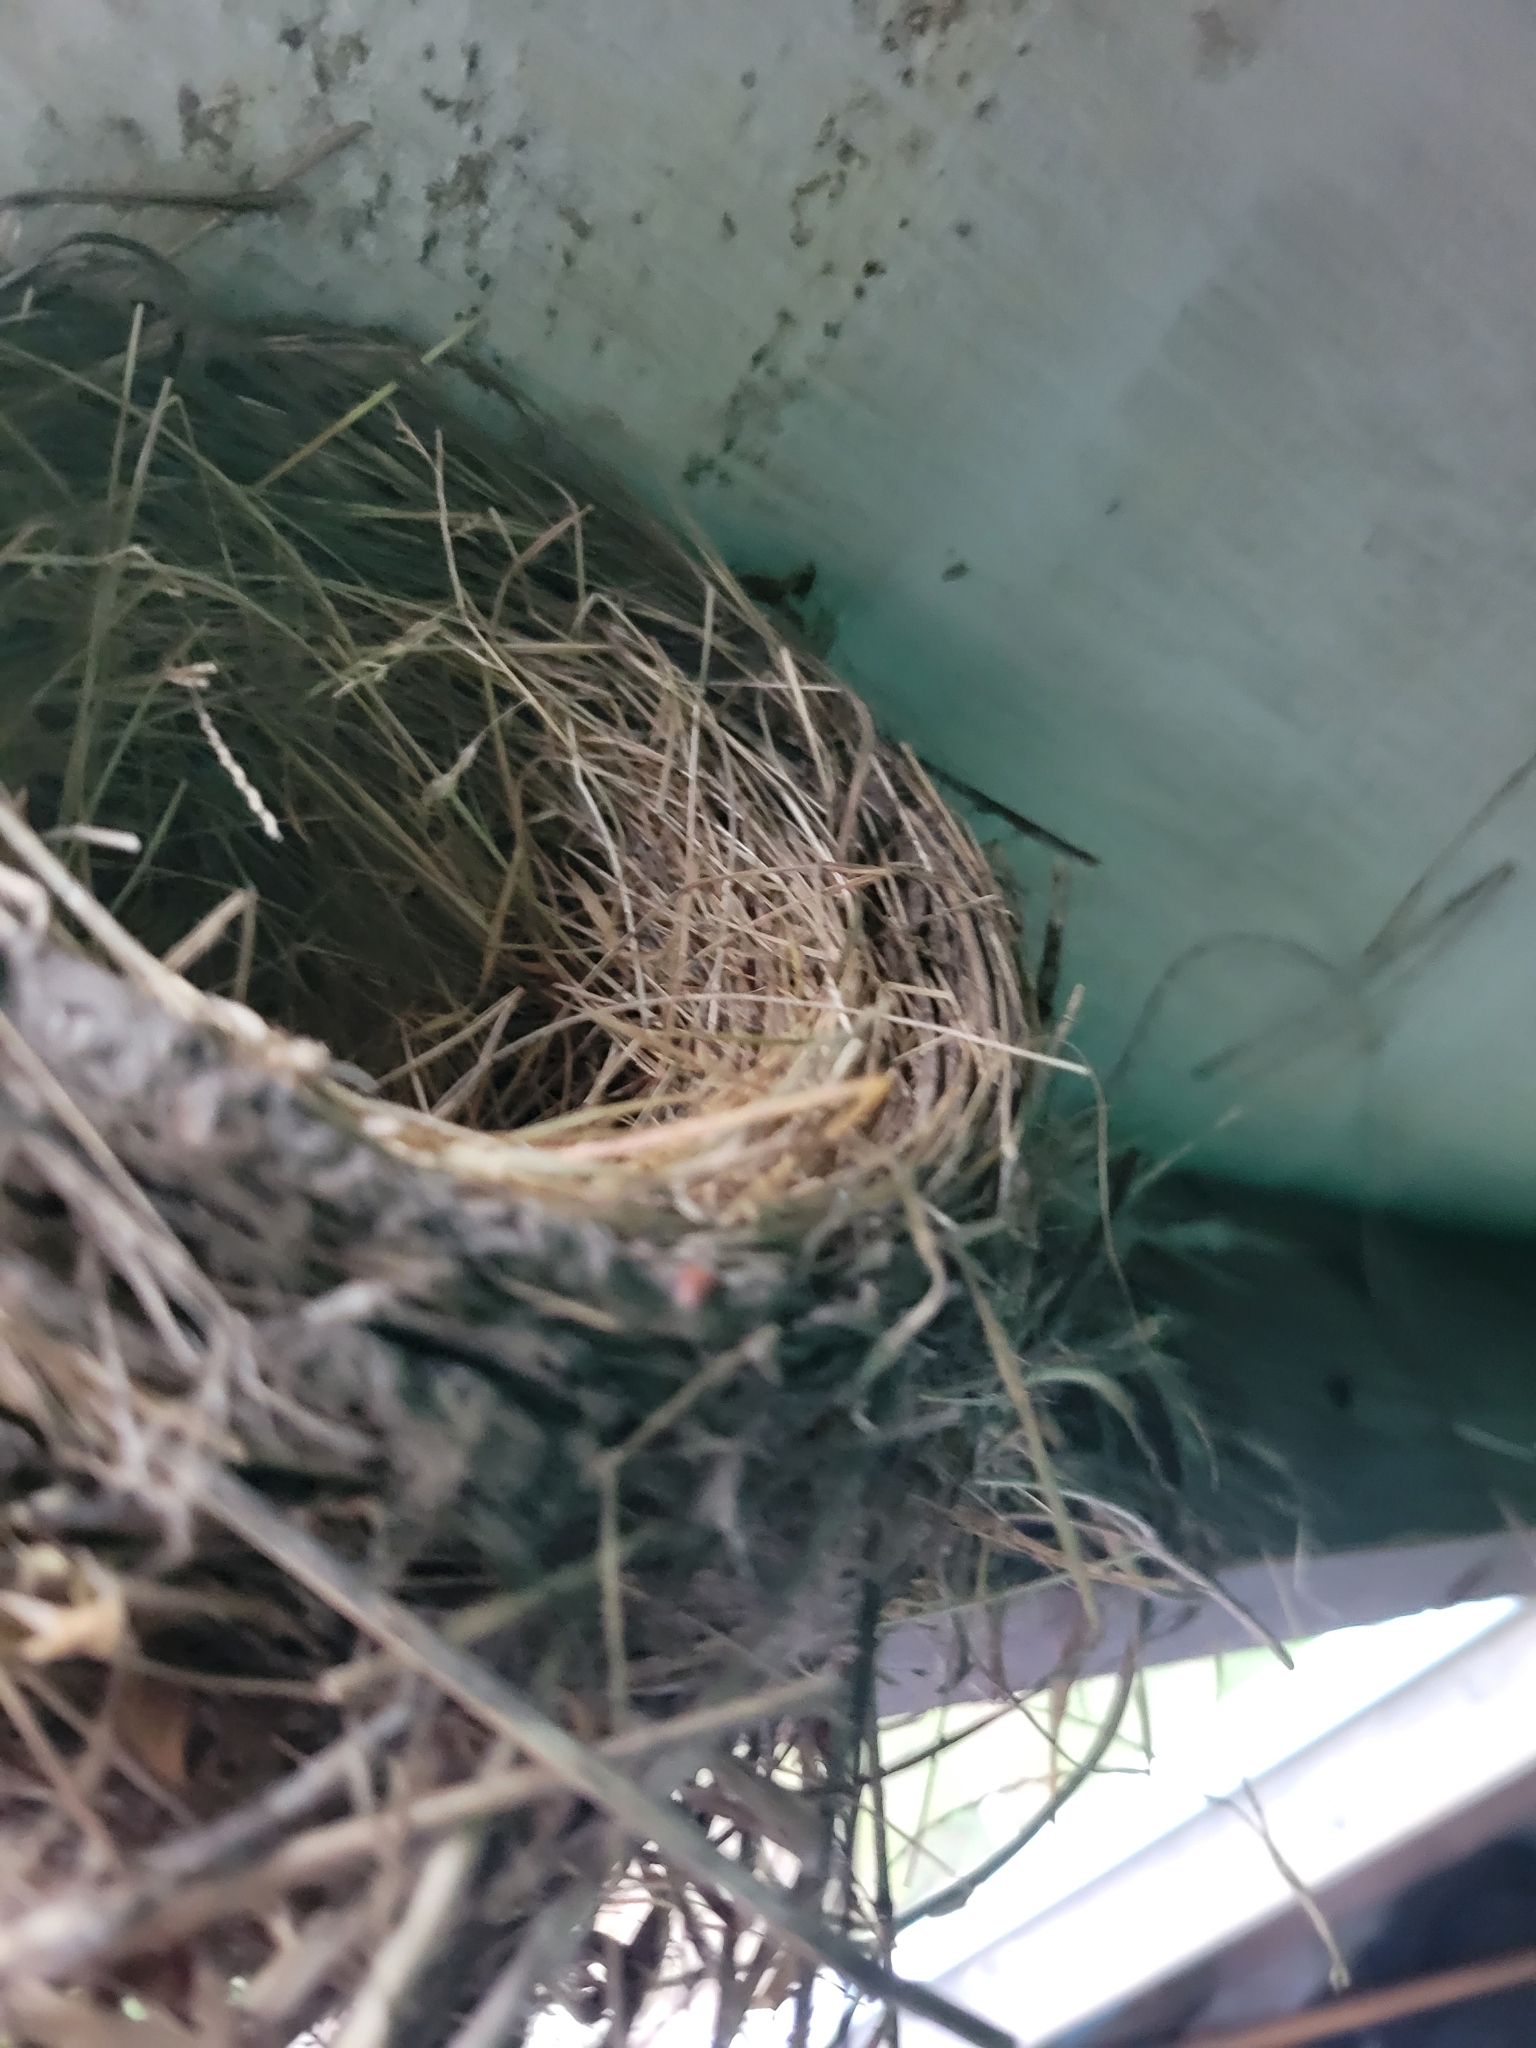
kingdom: Animalia
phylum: Chordata
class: Aves
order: Passeriformes
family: Turdidae
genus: Turdus
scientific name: Turdus migratorius
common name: American robin
